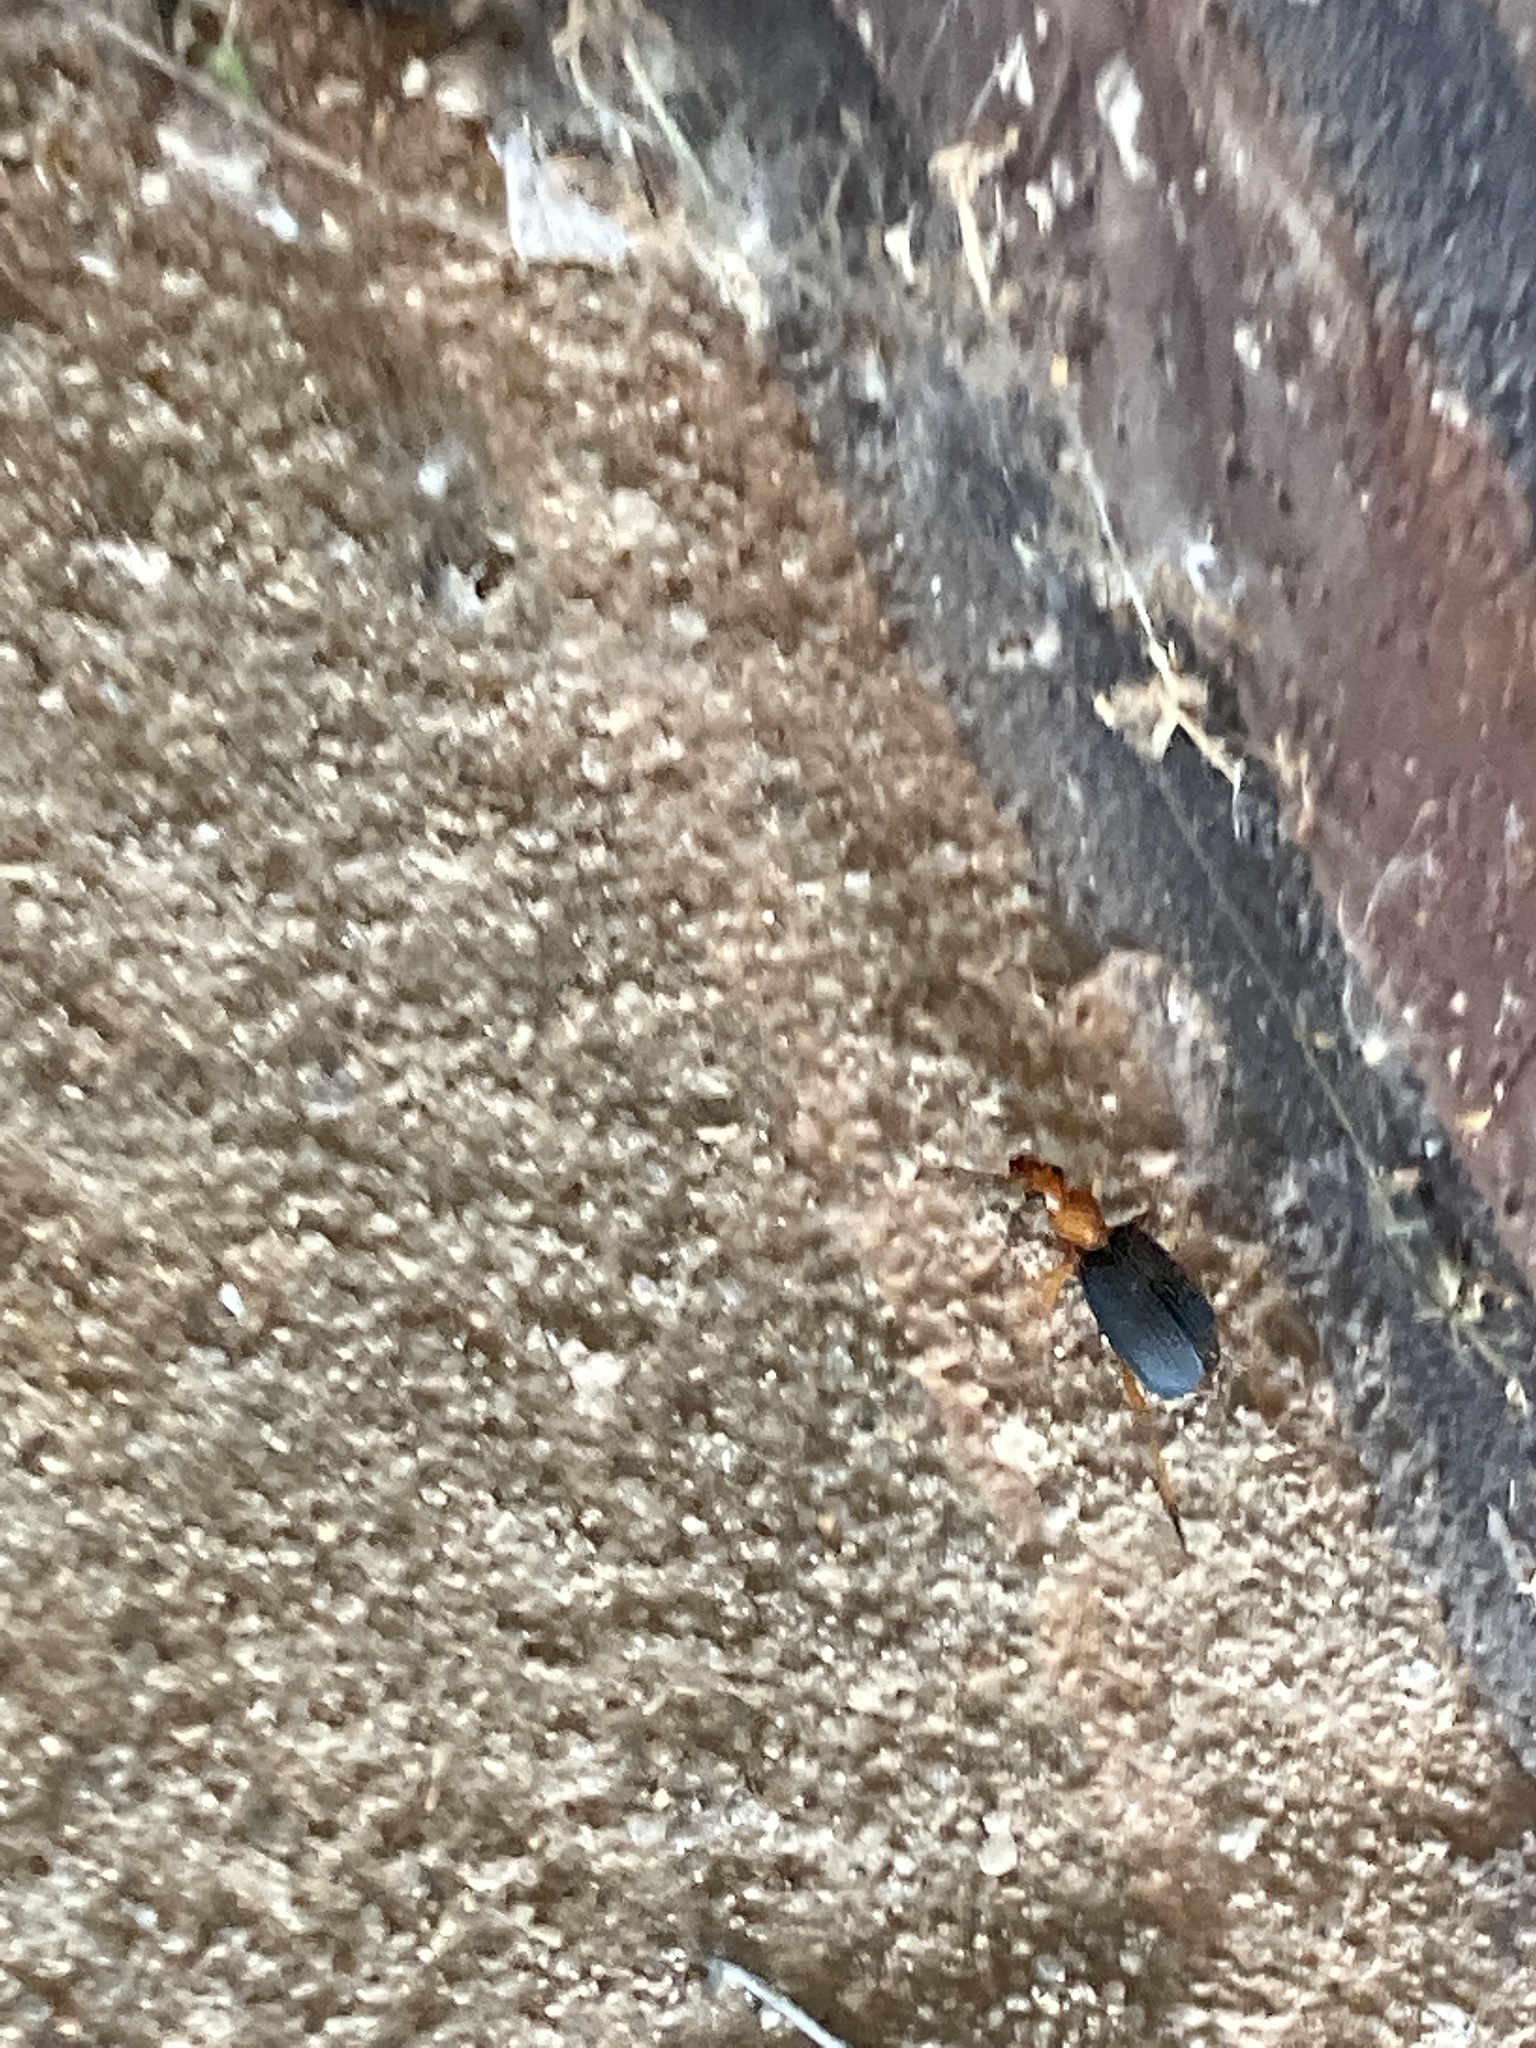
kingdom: Animalia
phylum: Arthropoda
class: Insecta
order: Coleoptera
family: Carabidae
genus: Brachinus
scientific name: Brachinus
